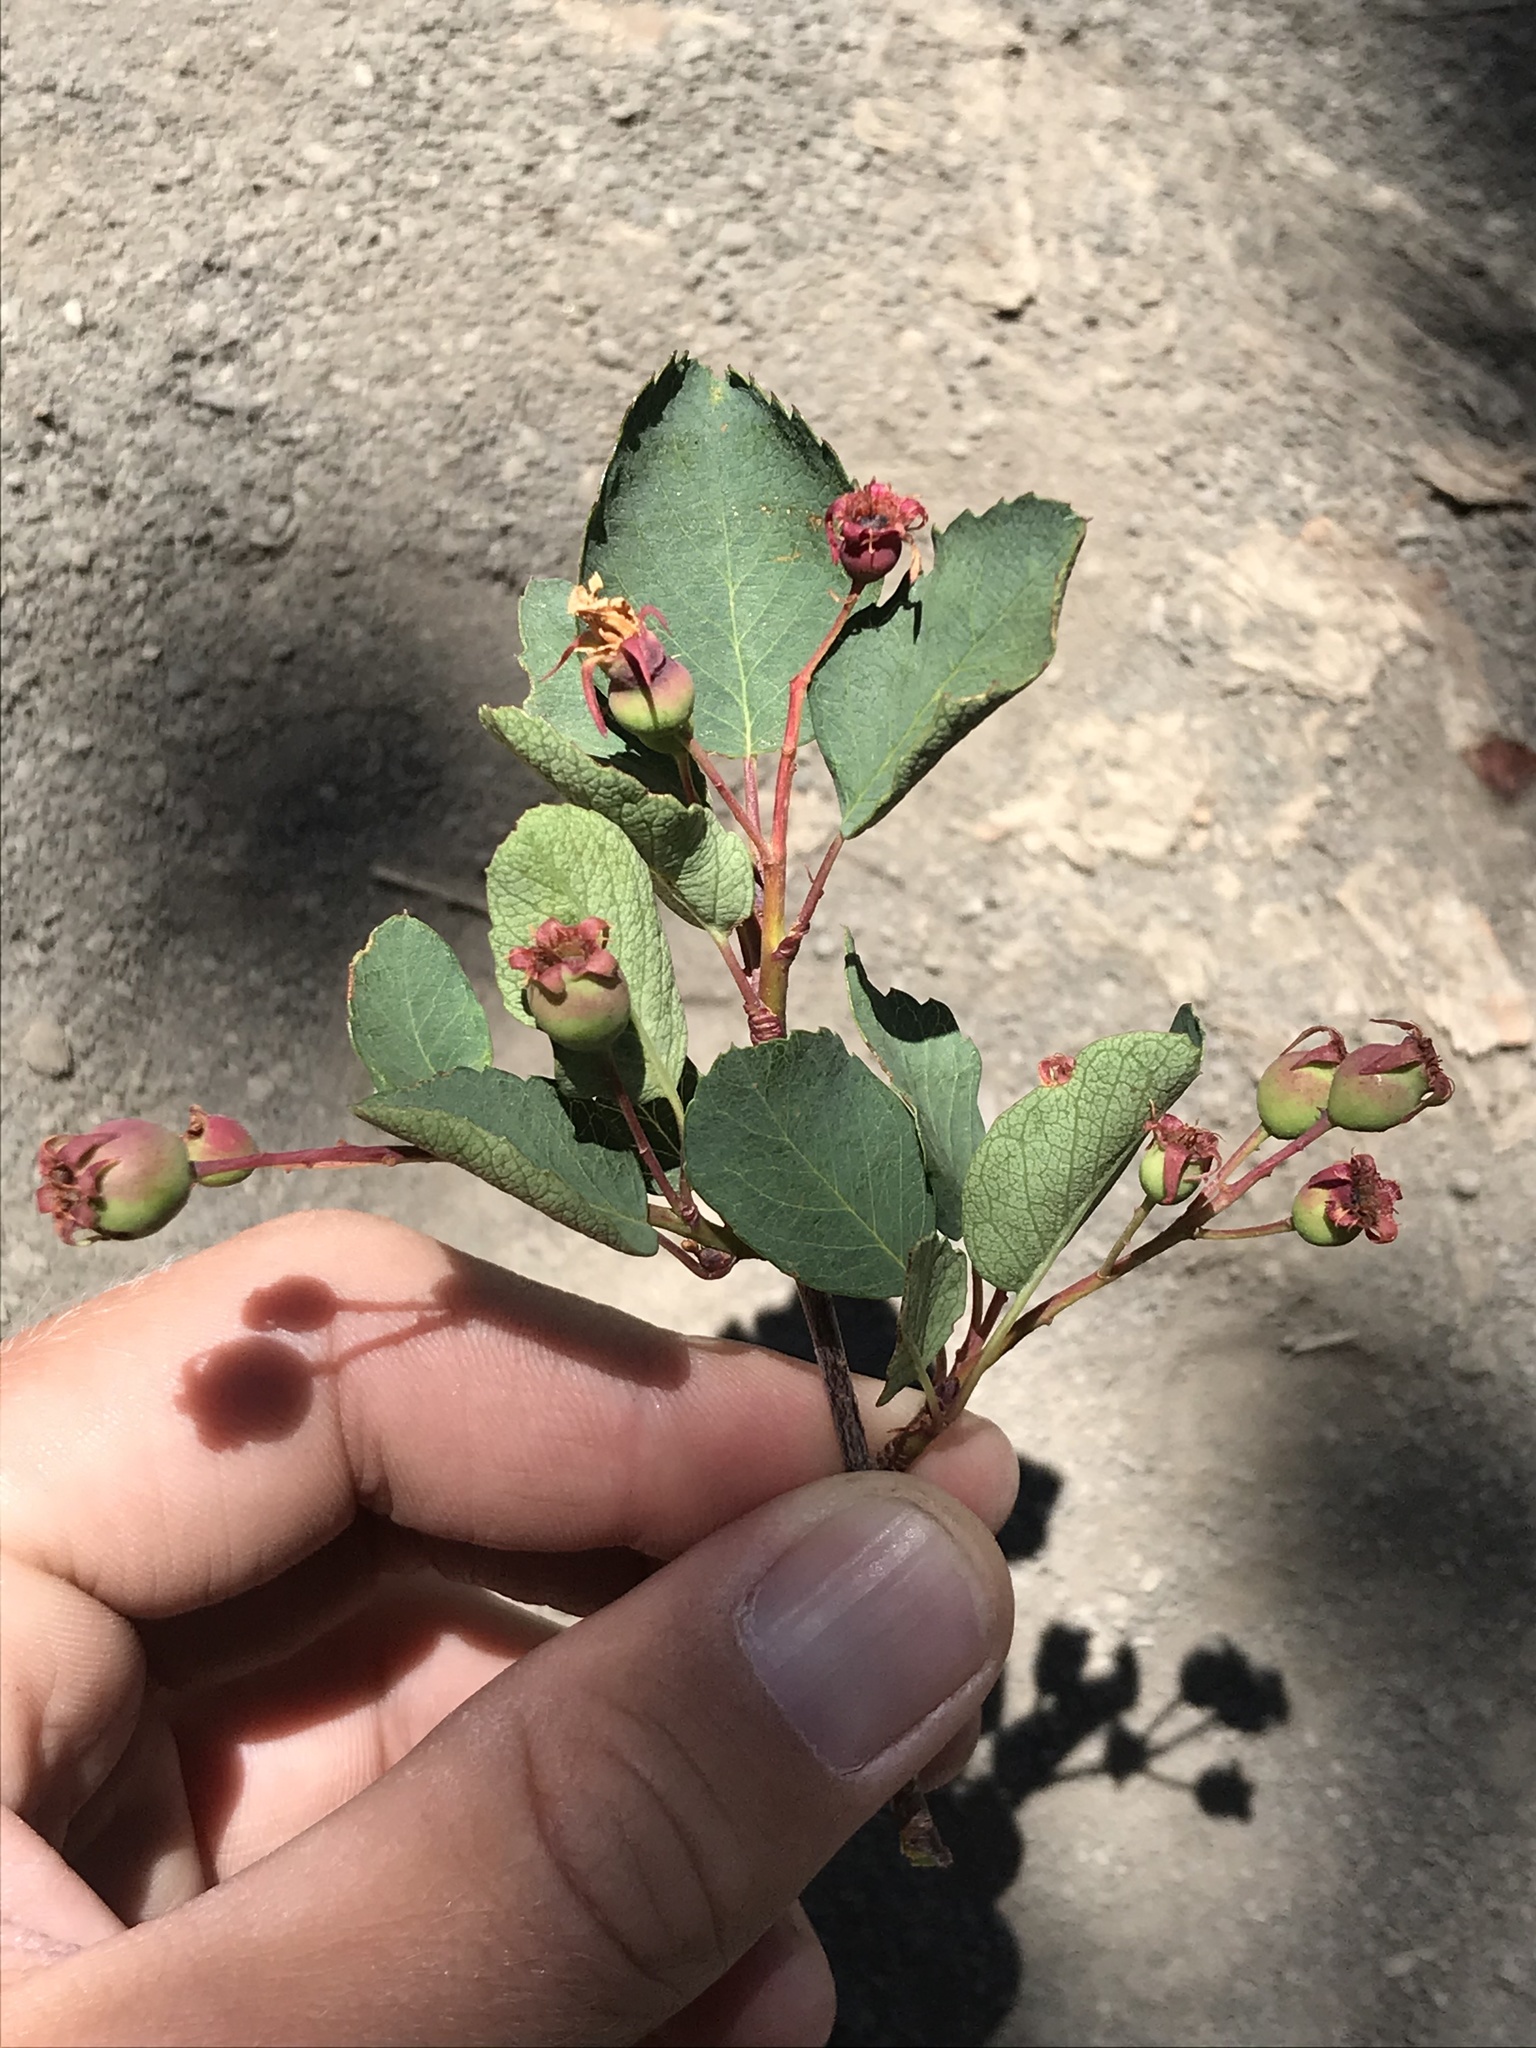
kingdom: Plantae
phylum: Tracheophyta
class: Magnoliopsida
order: Rosales
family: Rosaceae
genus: Amelanchier
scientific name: Amelanchier alnifolia
